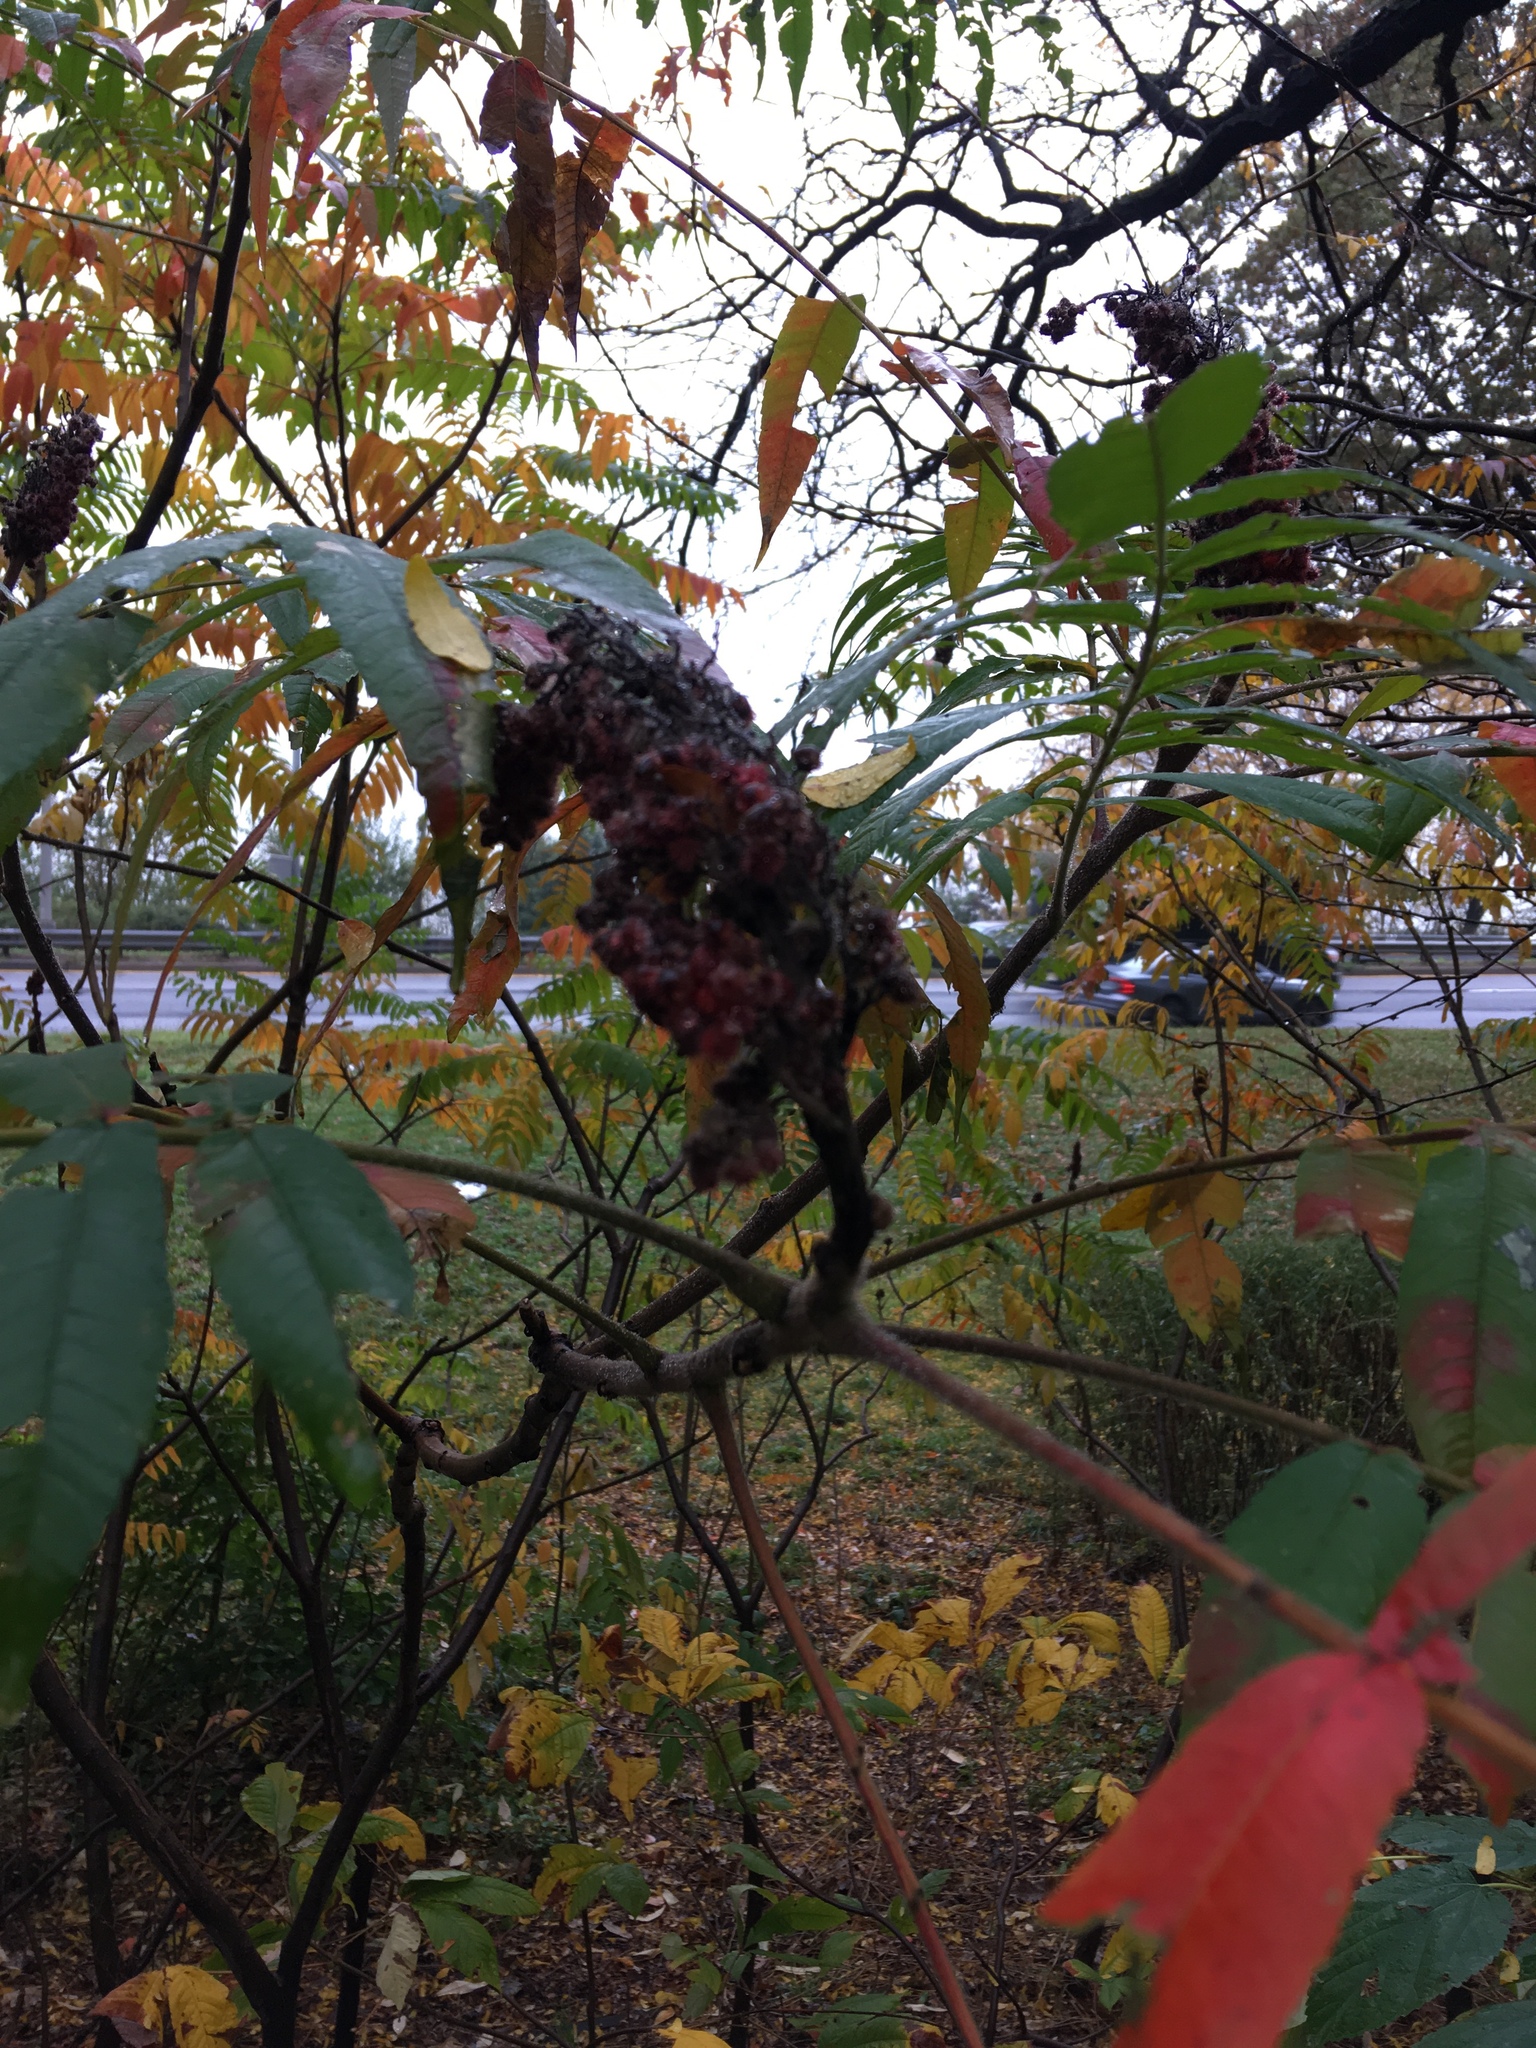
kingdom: Plantae
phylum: Tracheophyta
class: Magnoliopsida
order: Sapindales
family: Anacardiaceae
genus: Rhus
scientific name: Rhus typhina
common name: Staghorn sumac
